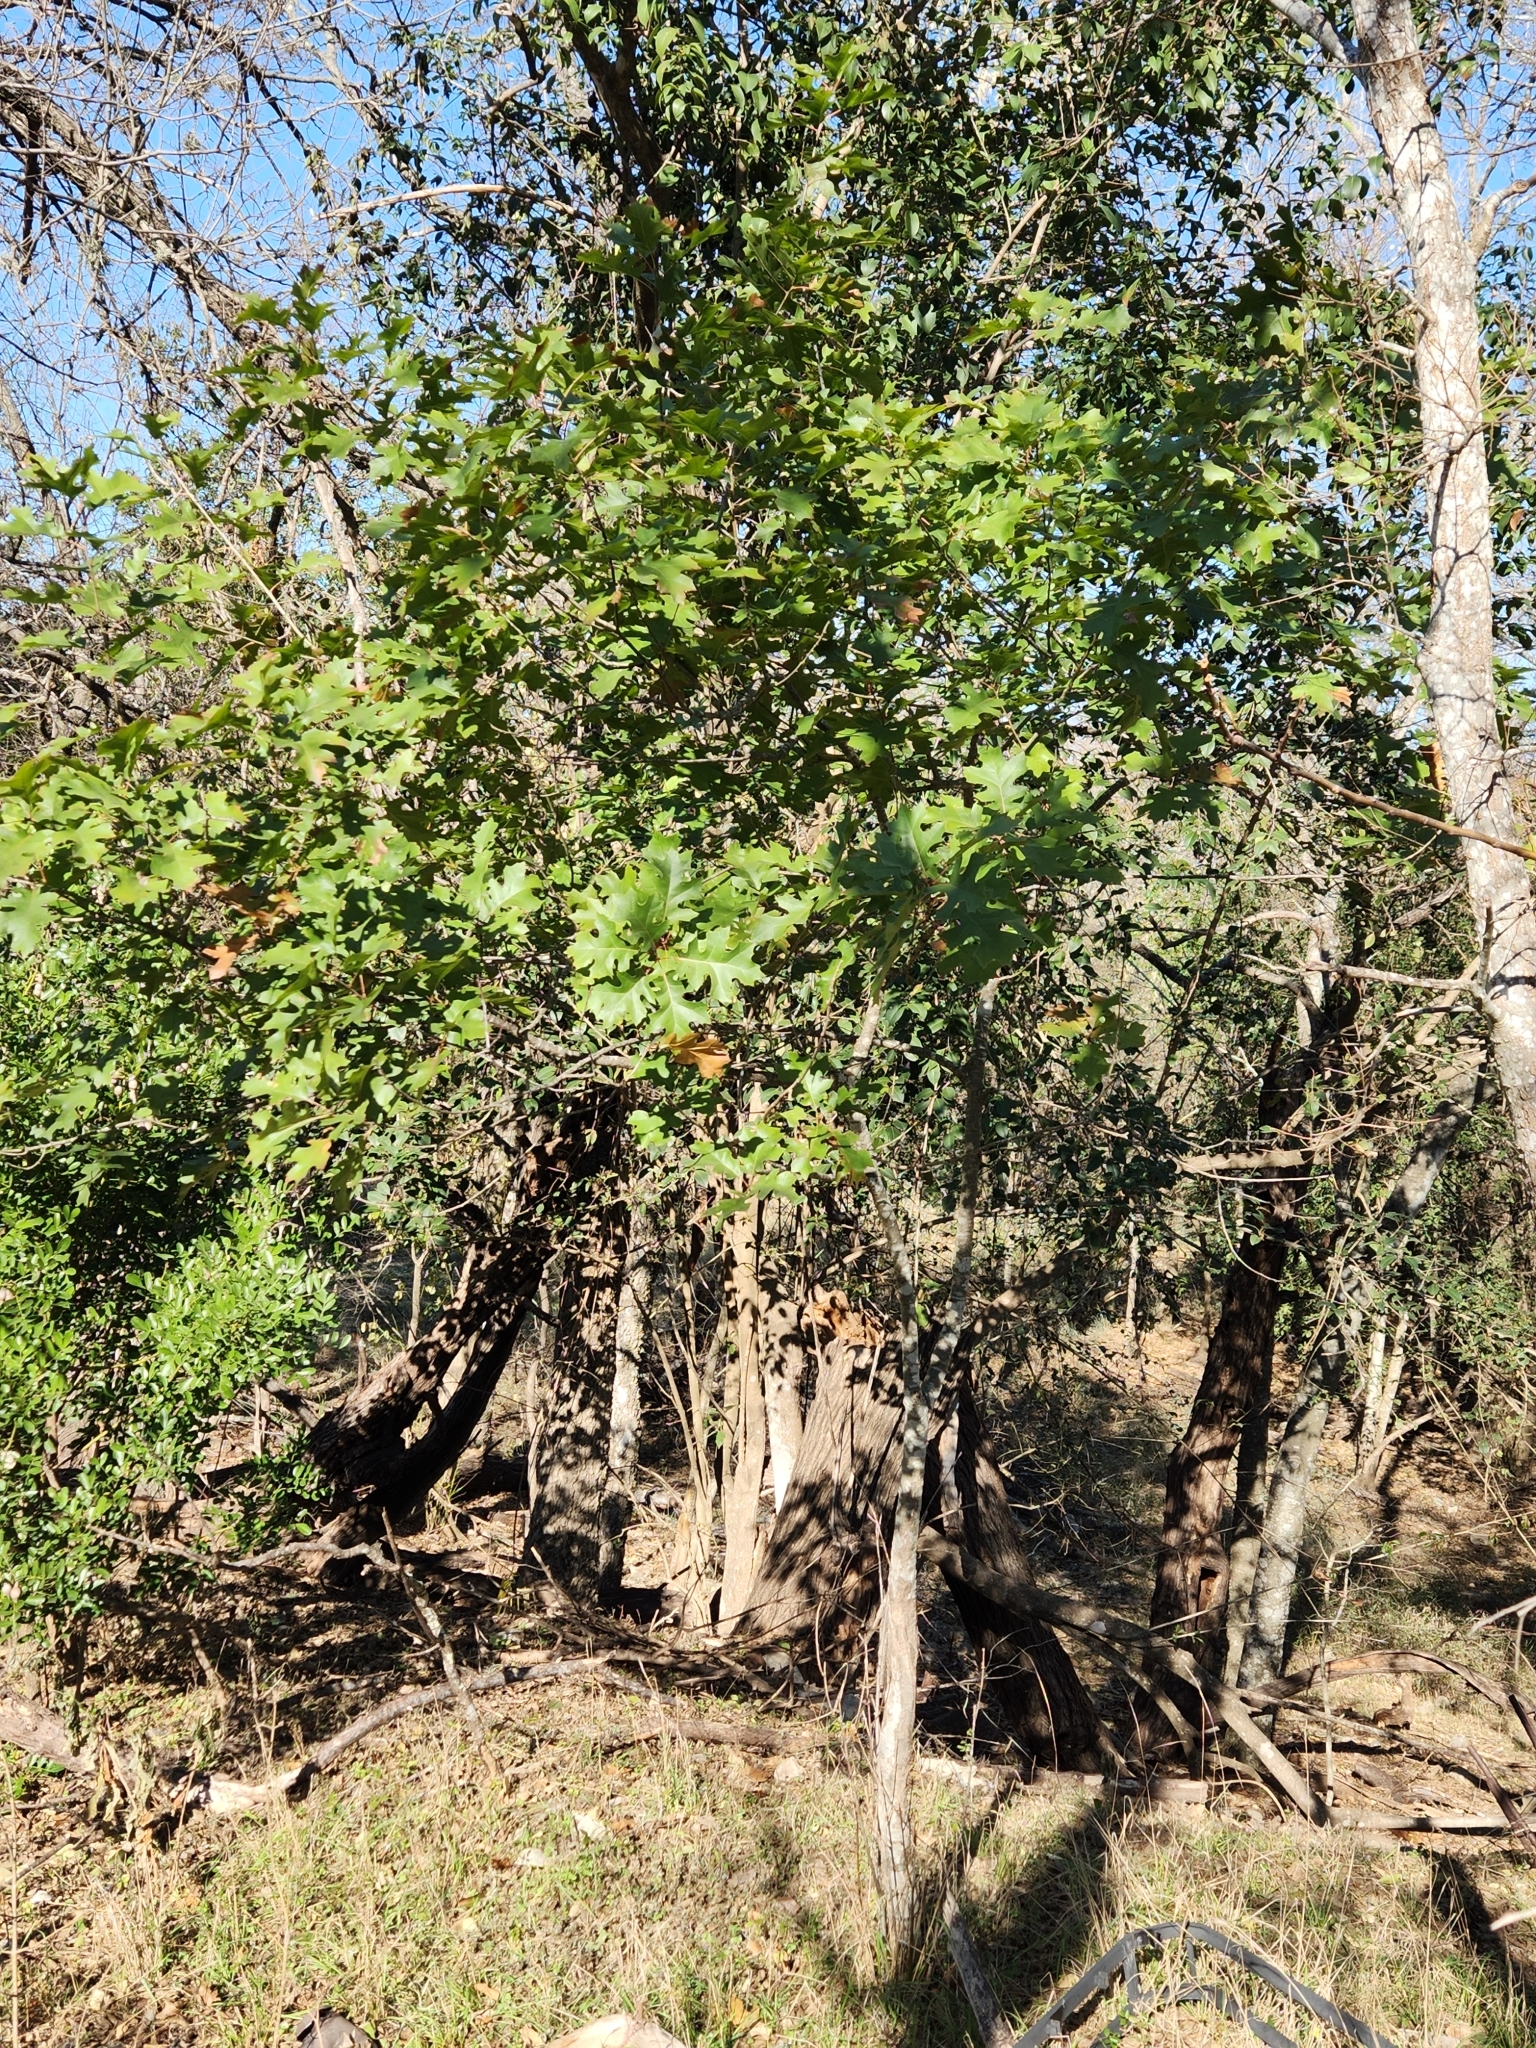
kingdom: Plantae
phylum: Tracheophyta
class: Magnoliopsida
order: Fagales
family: Fagaceae
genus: Quercus
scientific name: Quercus buckleyi
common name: Buckley oak
